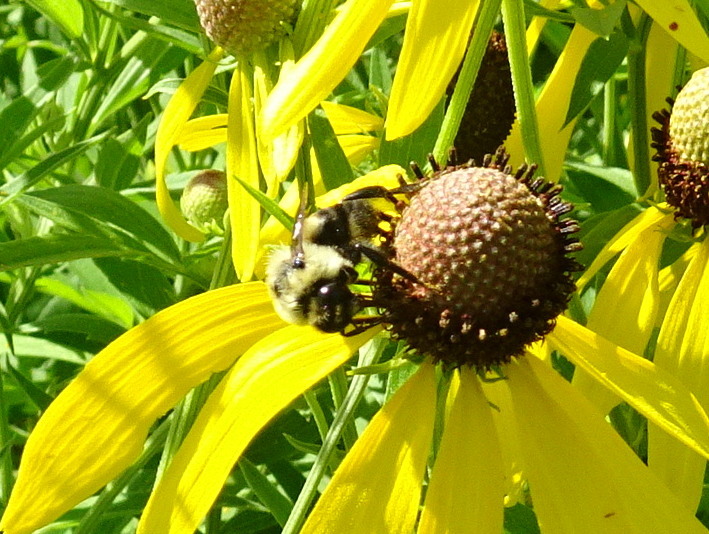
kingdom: Animalia
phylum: Arthropoda
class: Insecta
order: Hymenoptera
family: Apidae
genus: Bombus
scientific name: Bombus griseocollis
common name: Brown-belted bumble bee
